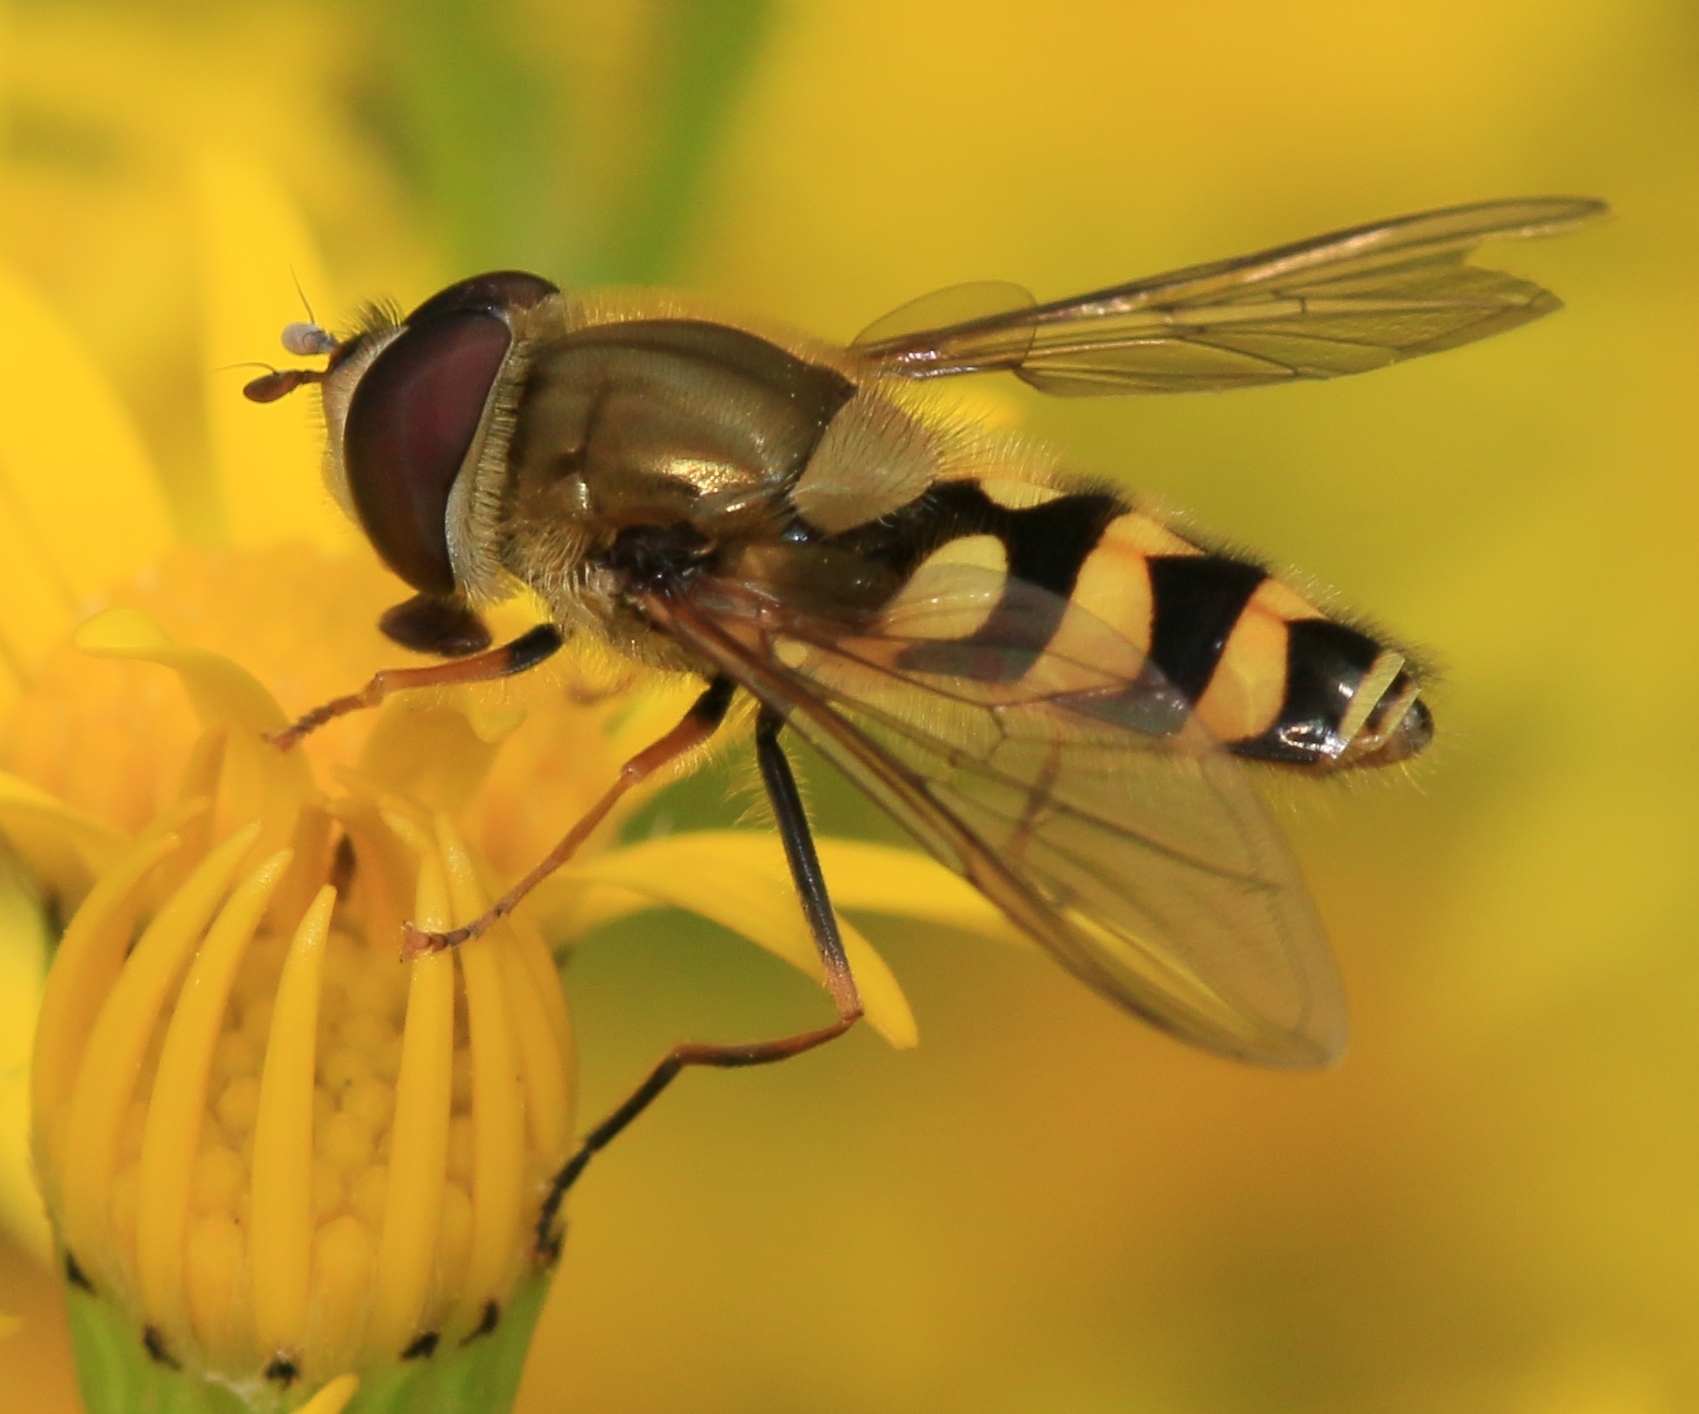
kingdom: Animalia
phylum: Arthropoda
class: Insecta
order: Diptera
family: Syrphidae
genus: Syrphus
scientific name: Syrphus
